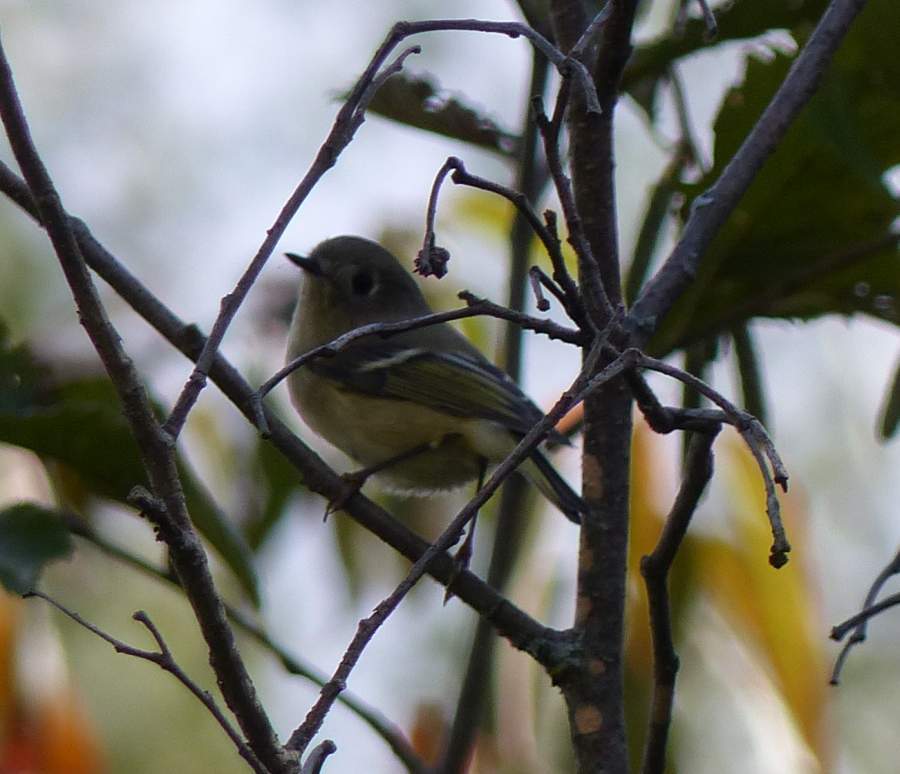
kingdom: Animalia
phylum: Chordata
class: Aves
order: Passeriformes
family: Regulidae
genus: Regulus
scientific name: Regulus calendula
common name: Ruby-crowned kinglet
